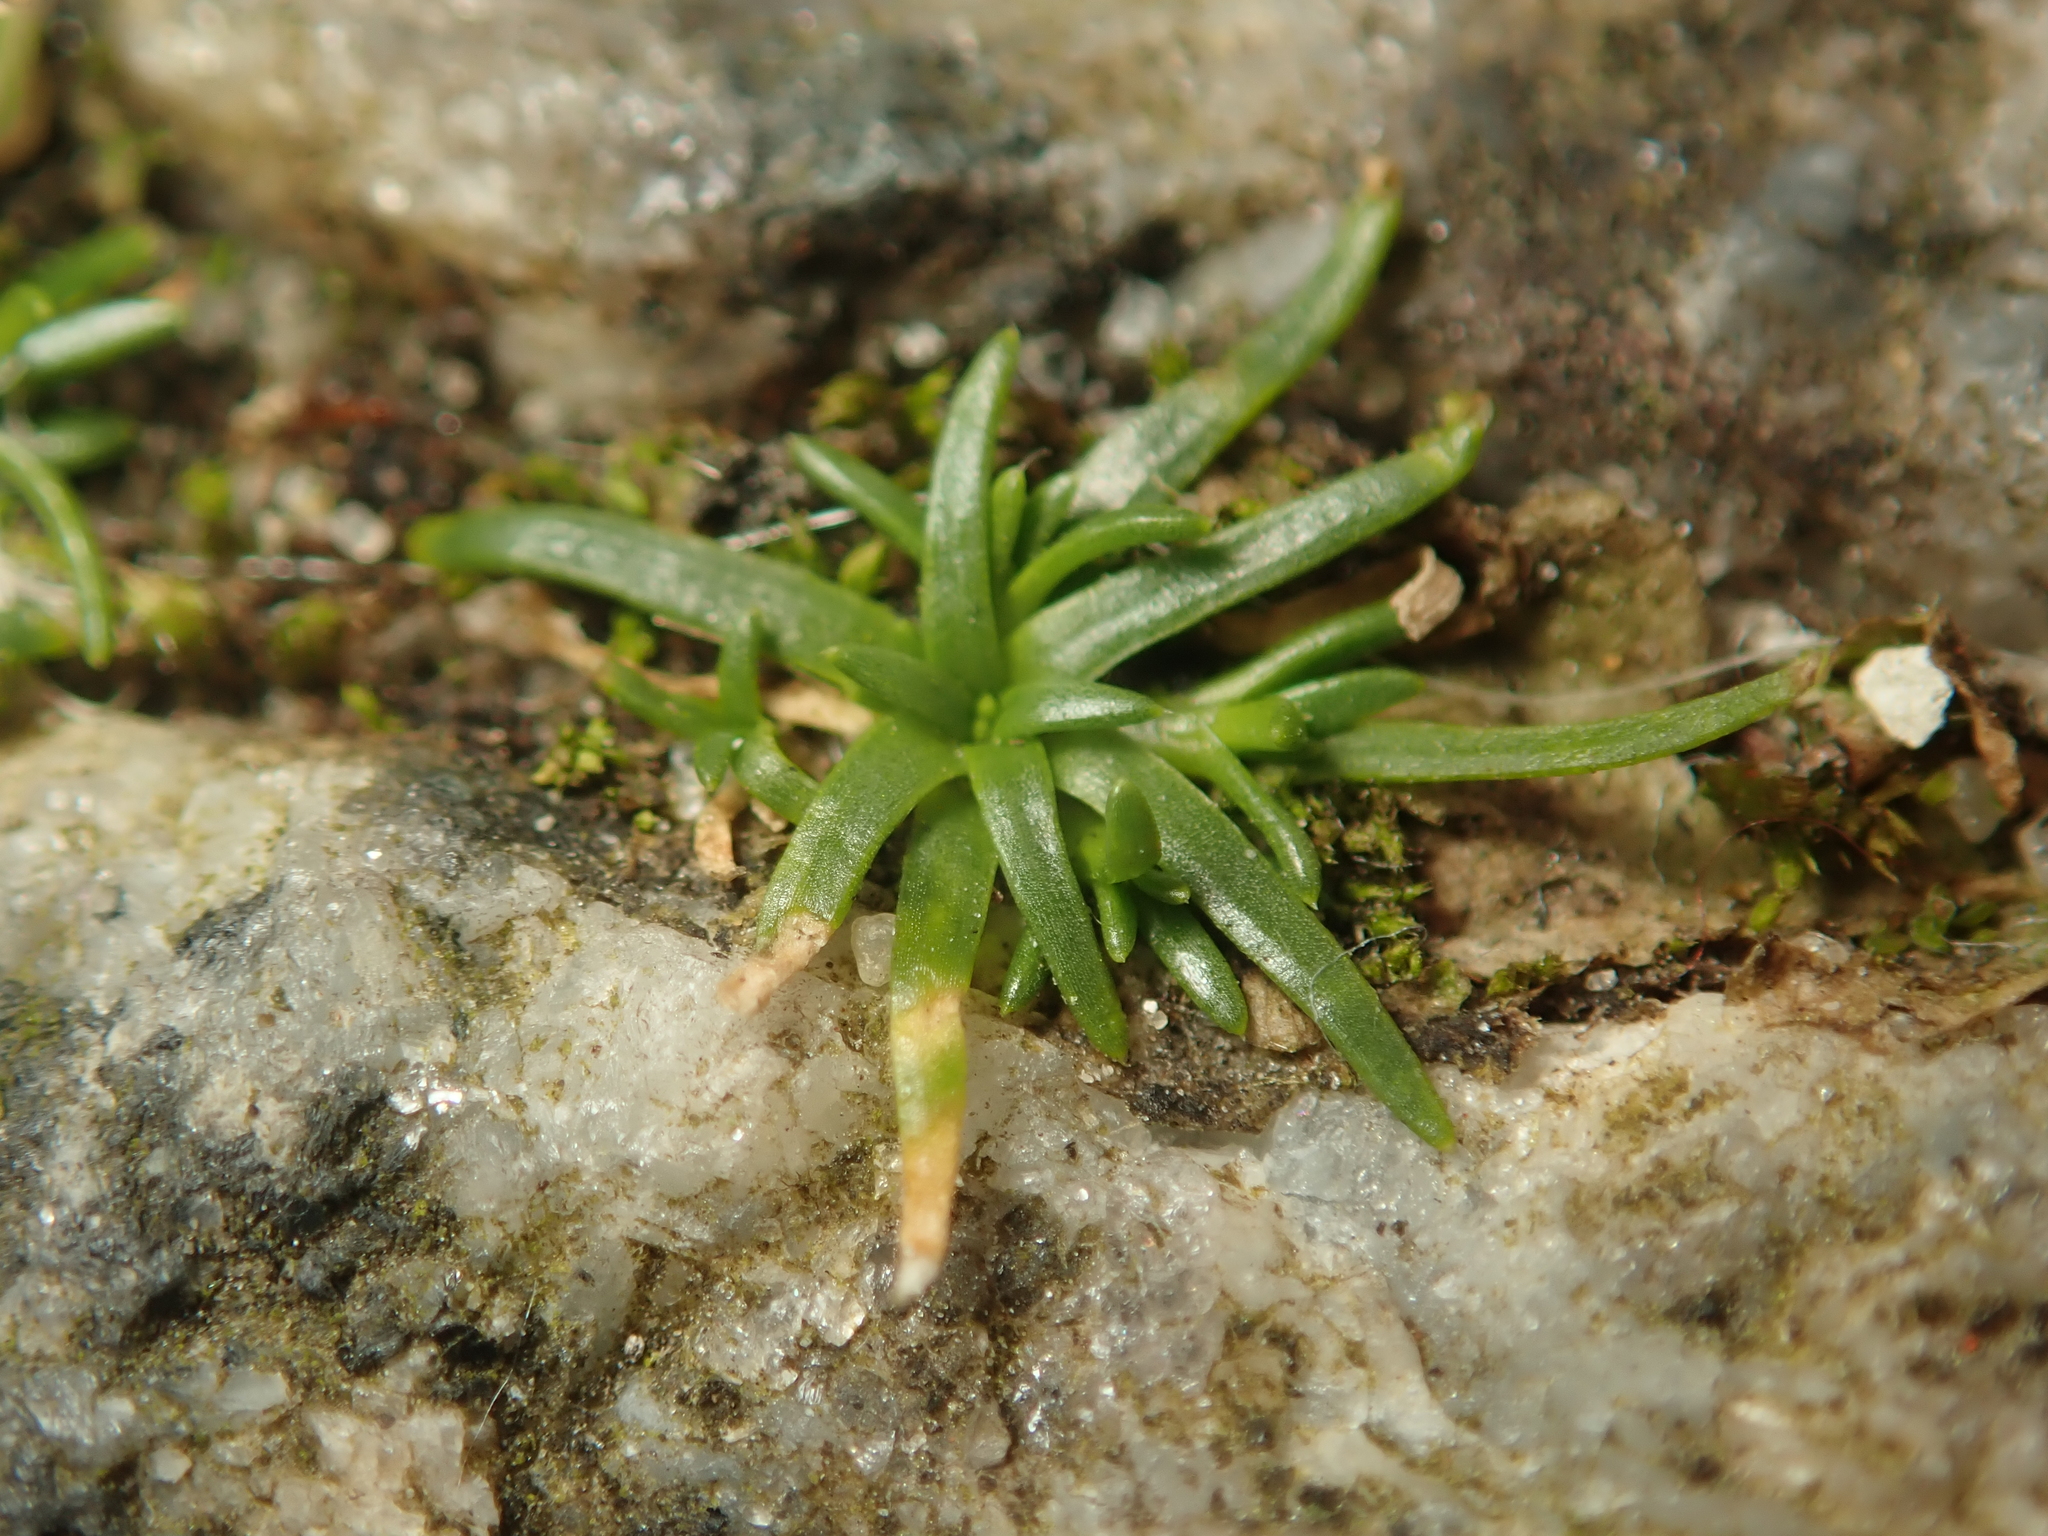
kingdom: Plantae
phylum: Tracheophyta
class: Magnoliopsida
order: Caryophyllales
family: Caryophyllaceae
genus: Sagina
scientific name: Sagina procumbens
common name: Procumbent pearlwort
